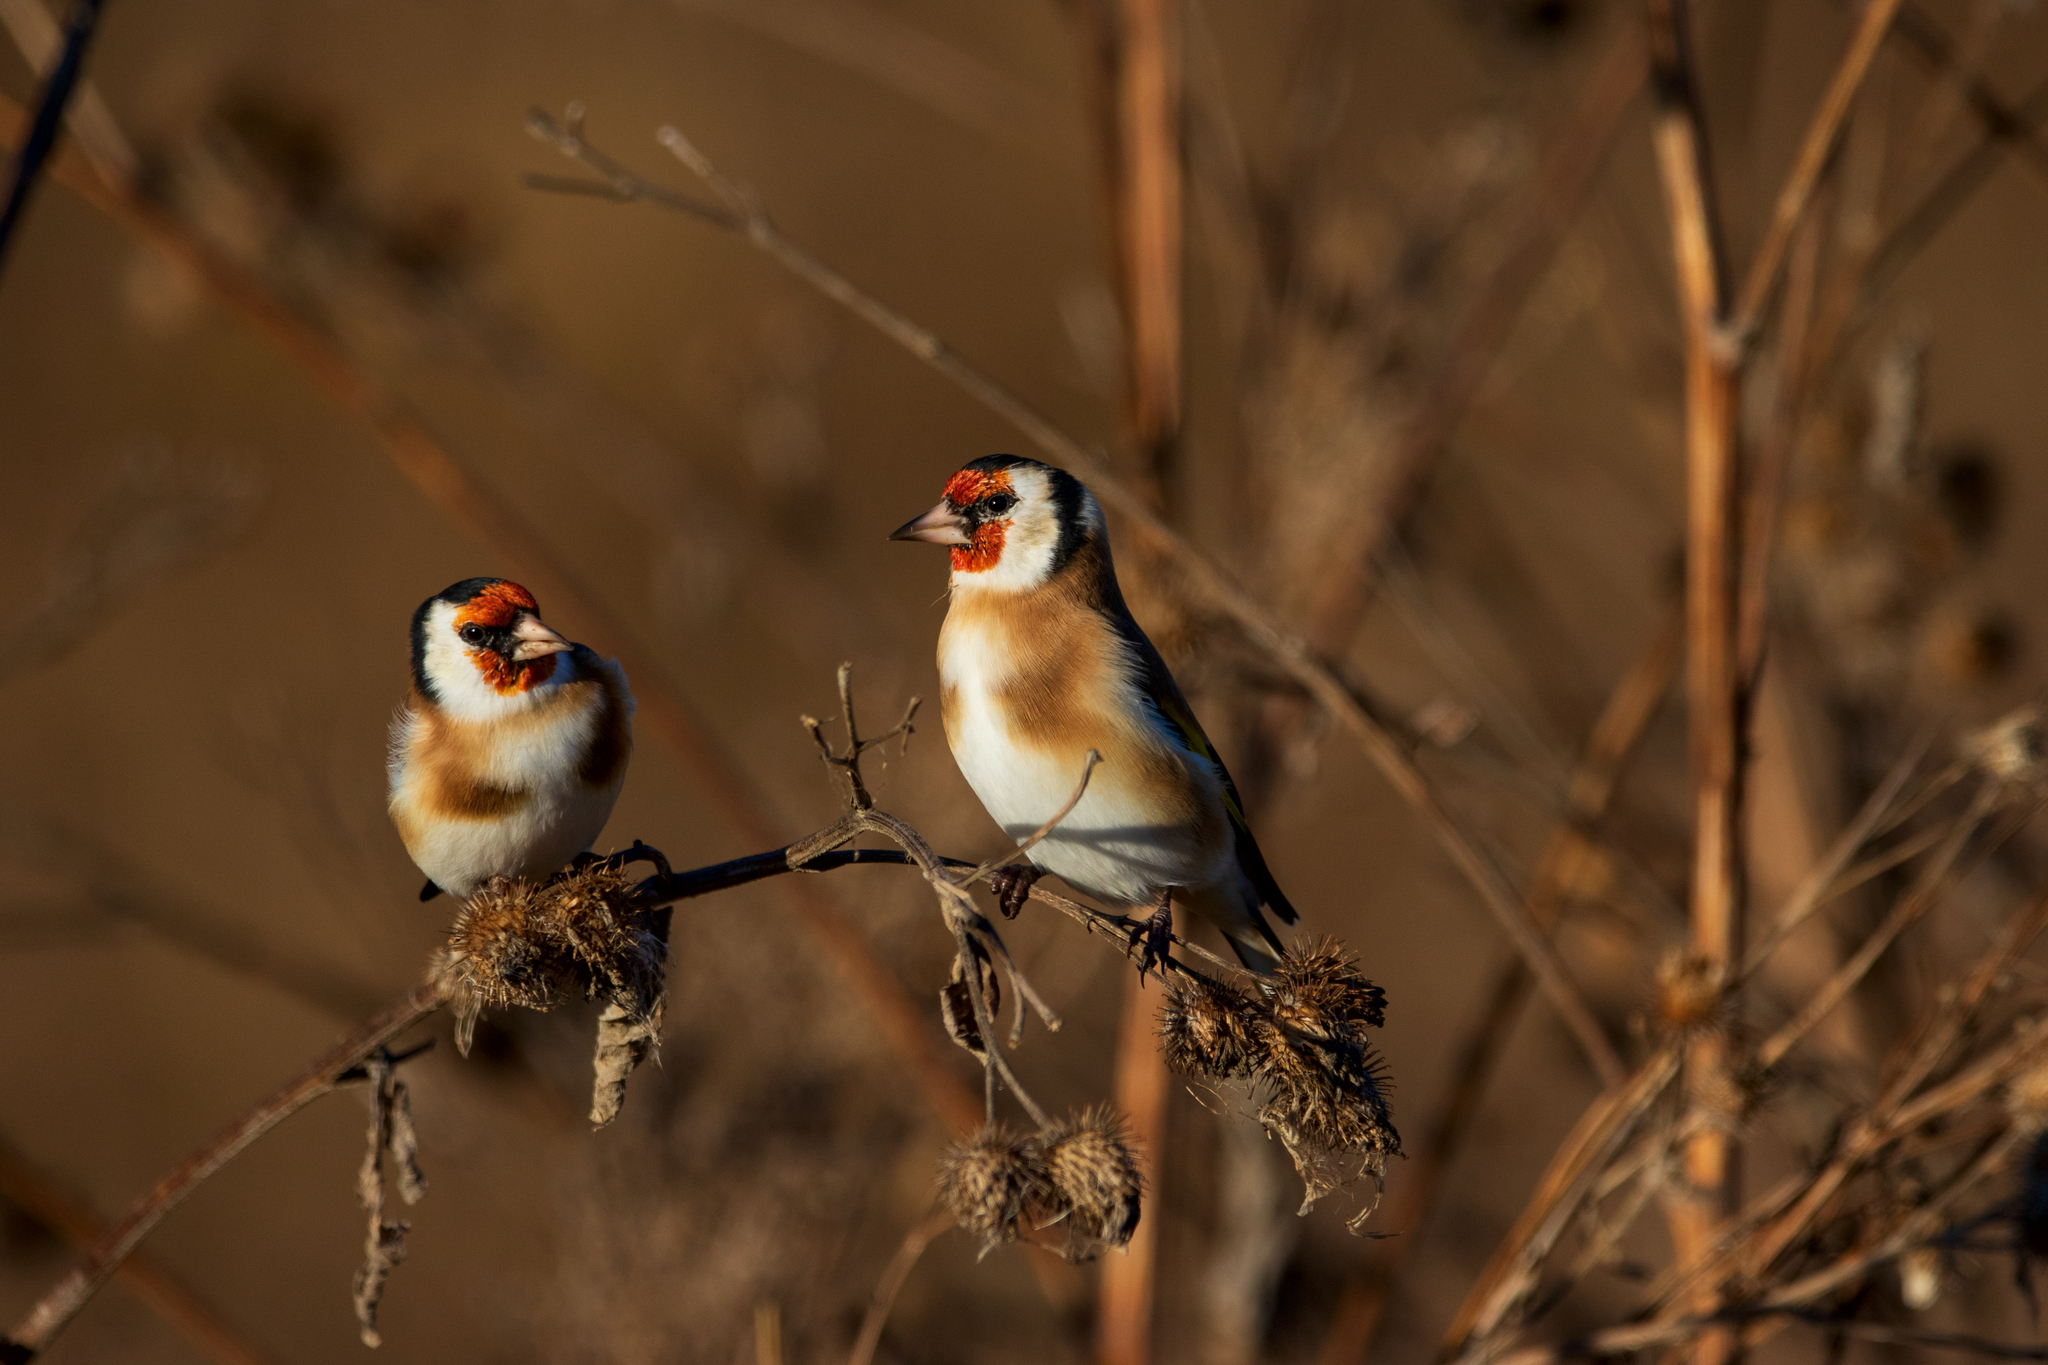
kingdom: Animalia
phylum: Chordata
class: Aves
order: Passeriformes
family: Fringillidae
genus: Carduelis
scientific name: Carduelis carduelis
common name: European goldfinch
